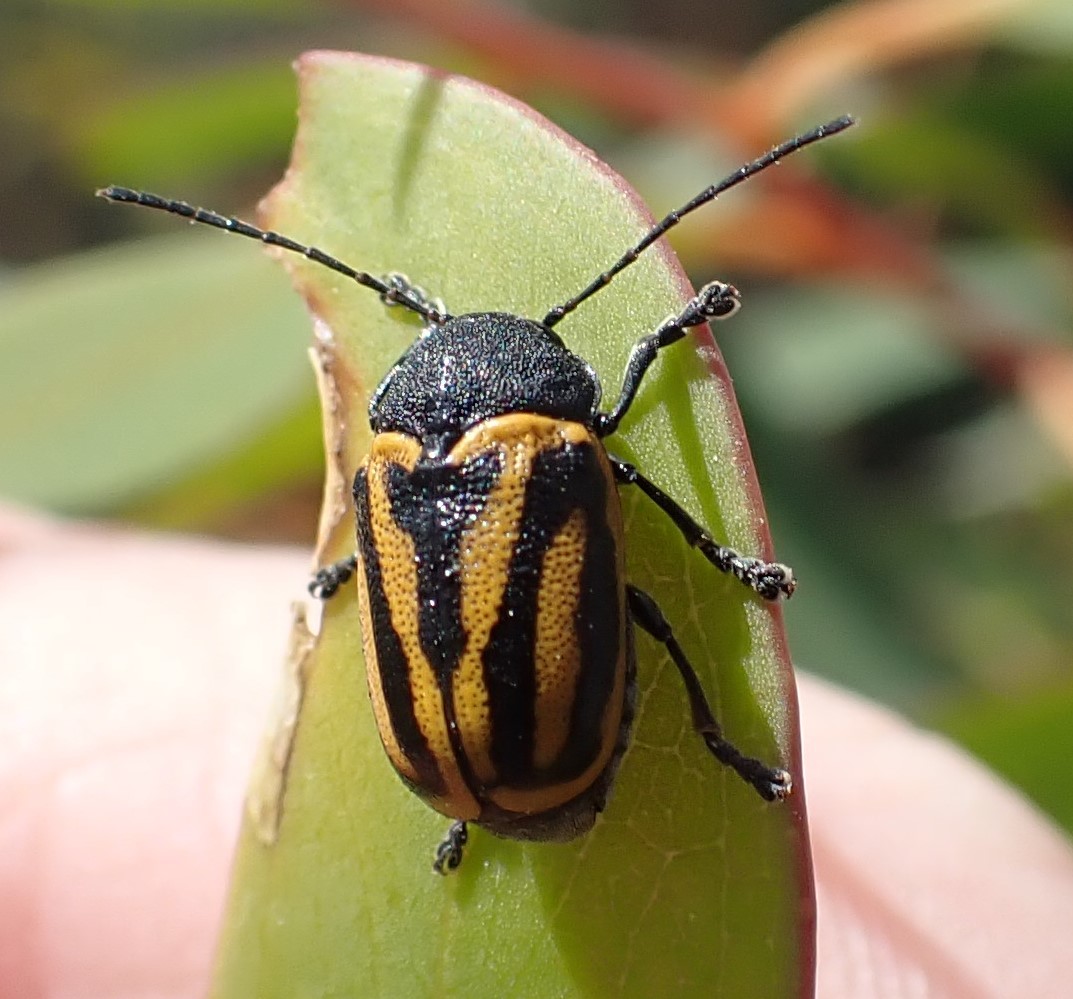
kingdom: Animalia
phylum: Arthropoda
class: Insecta
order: Coleoptera
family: Chrysomelidae
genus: Cadmus
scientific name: Cadmus
